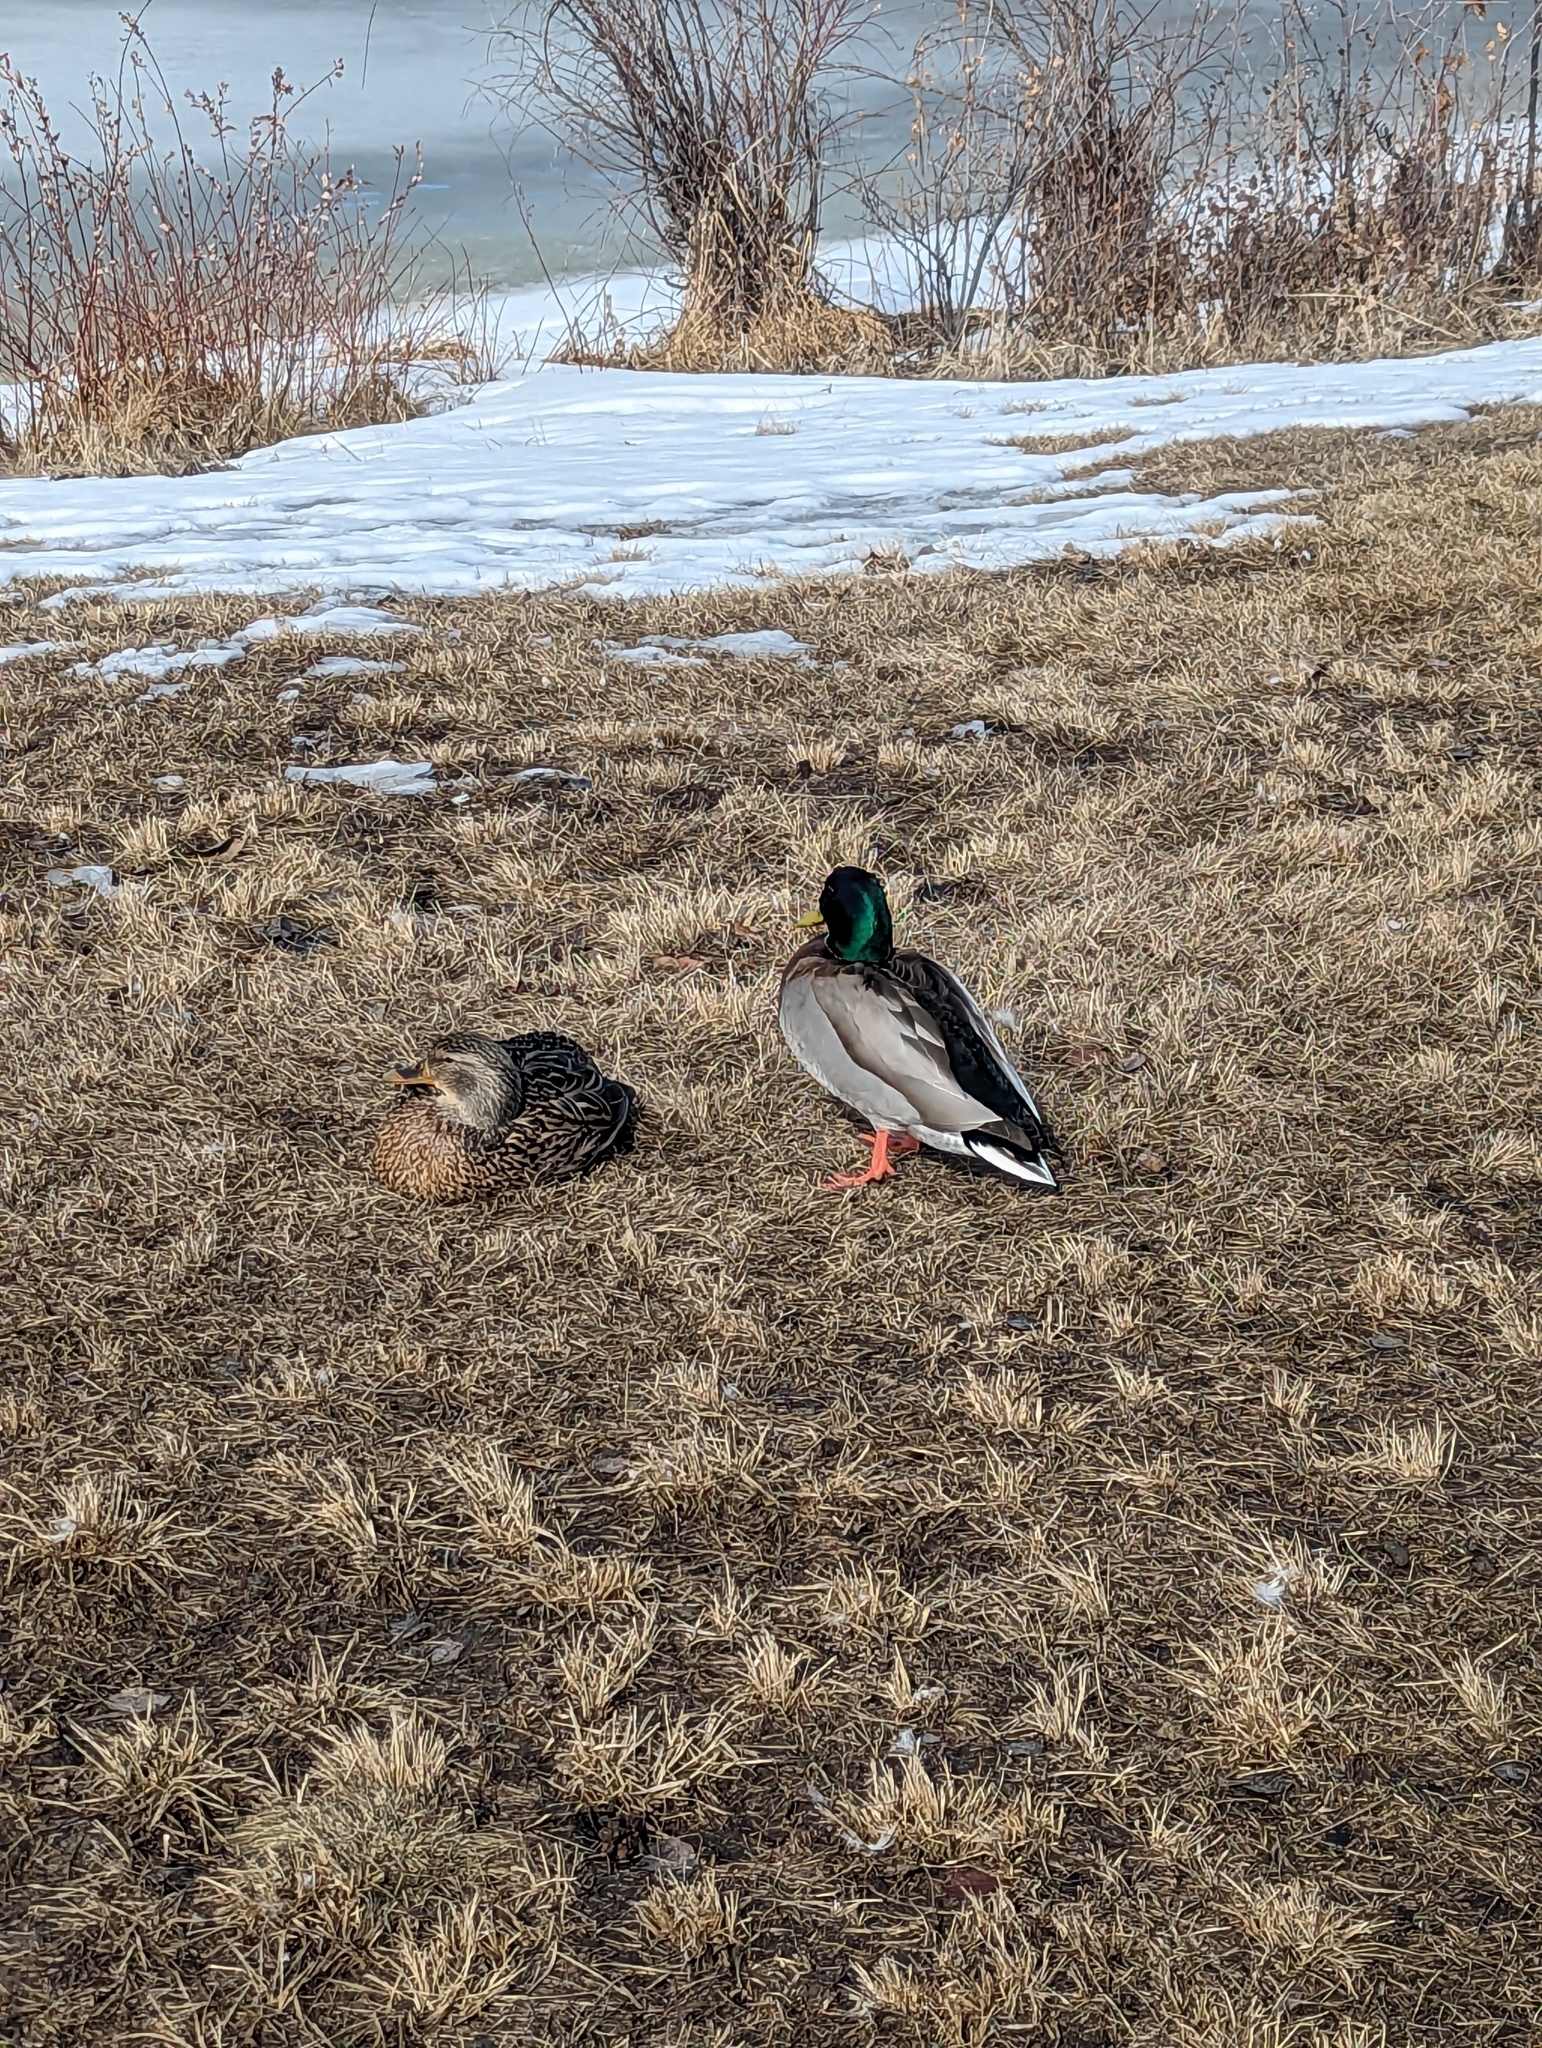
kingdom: Animalia
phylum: Chordata
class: Aves
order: Anseriformes
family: Anatidae
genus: Anas
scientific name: Anas platyrhynchos
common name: Mallard
